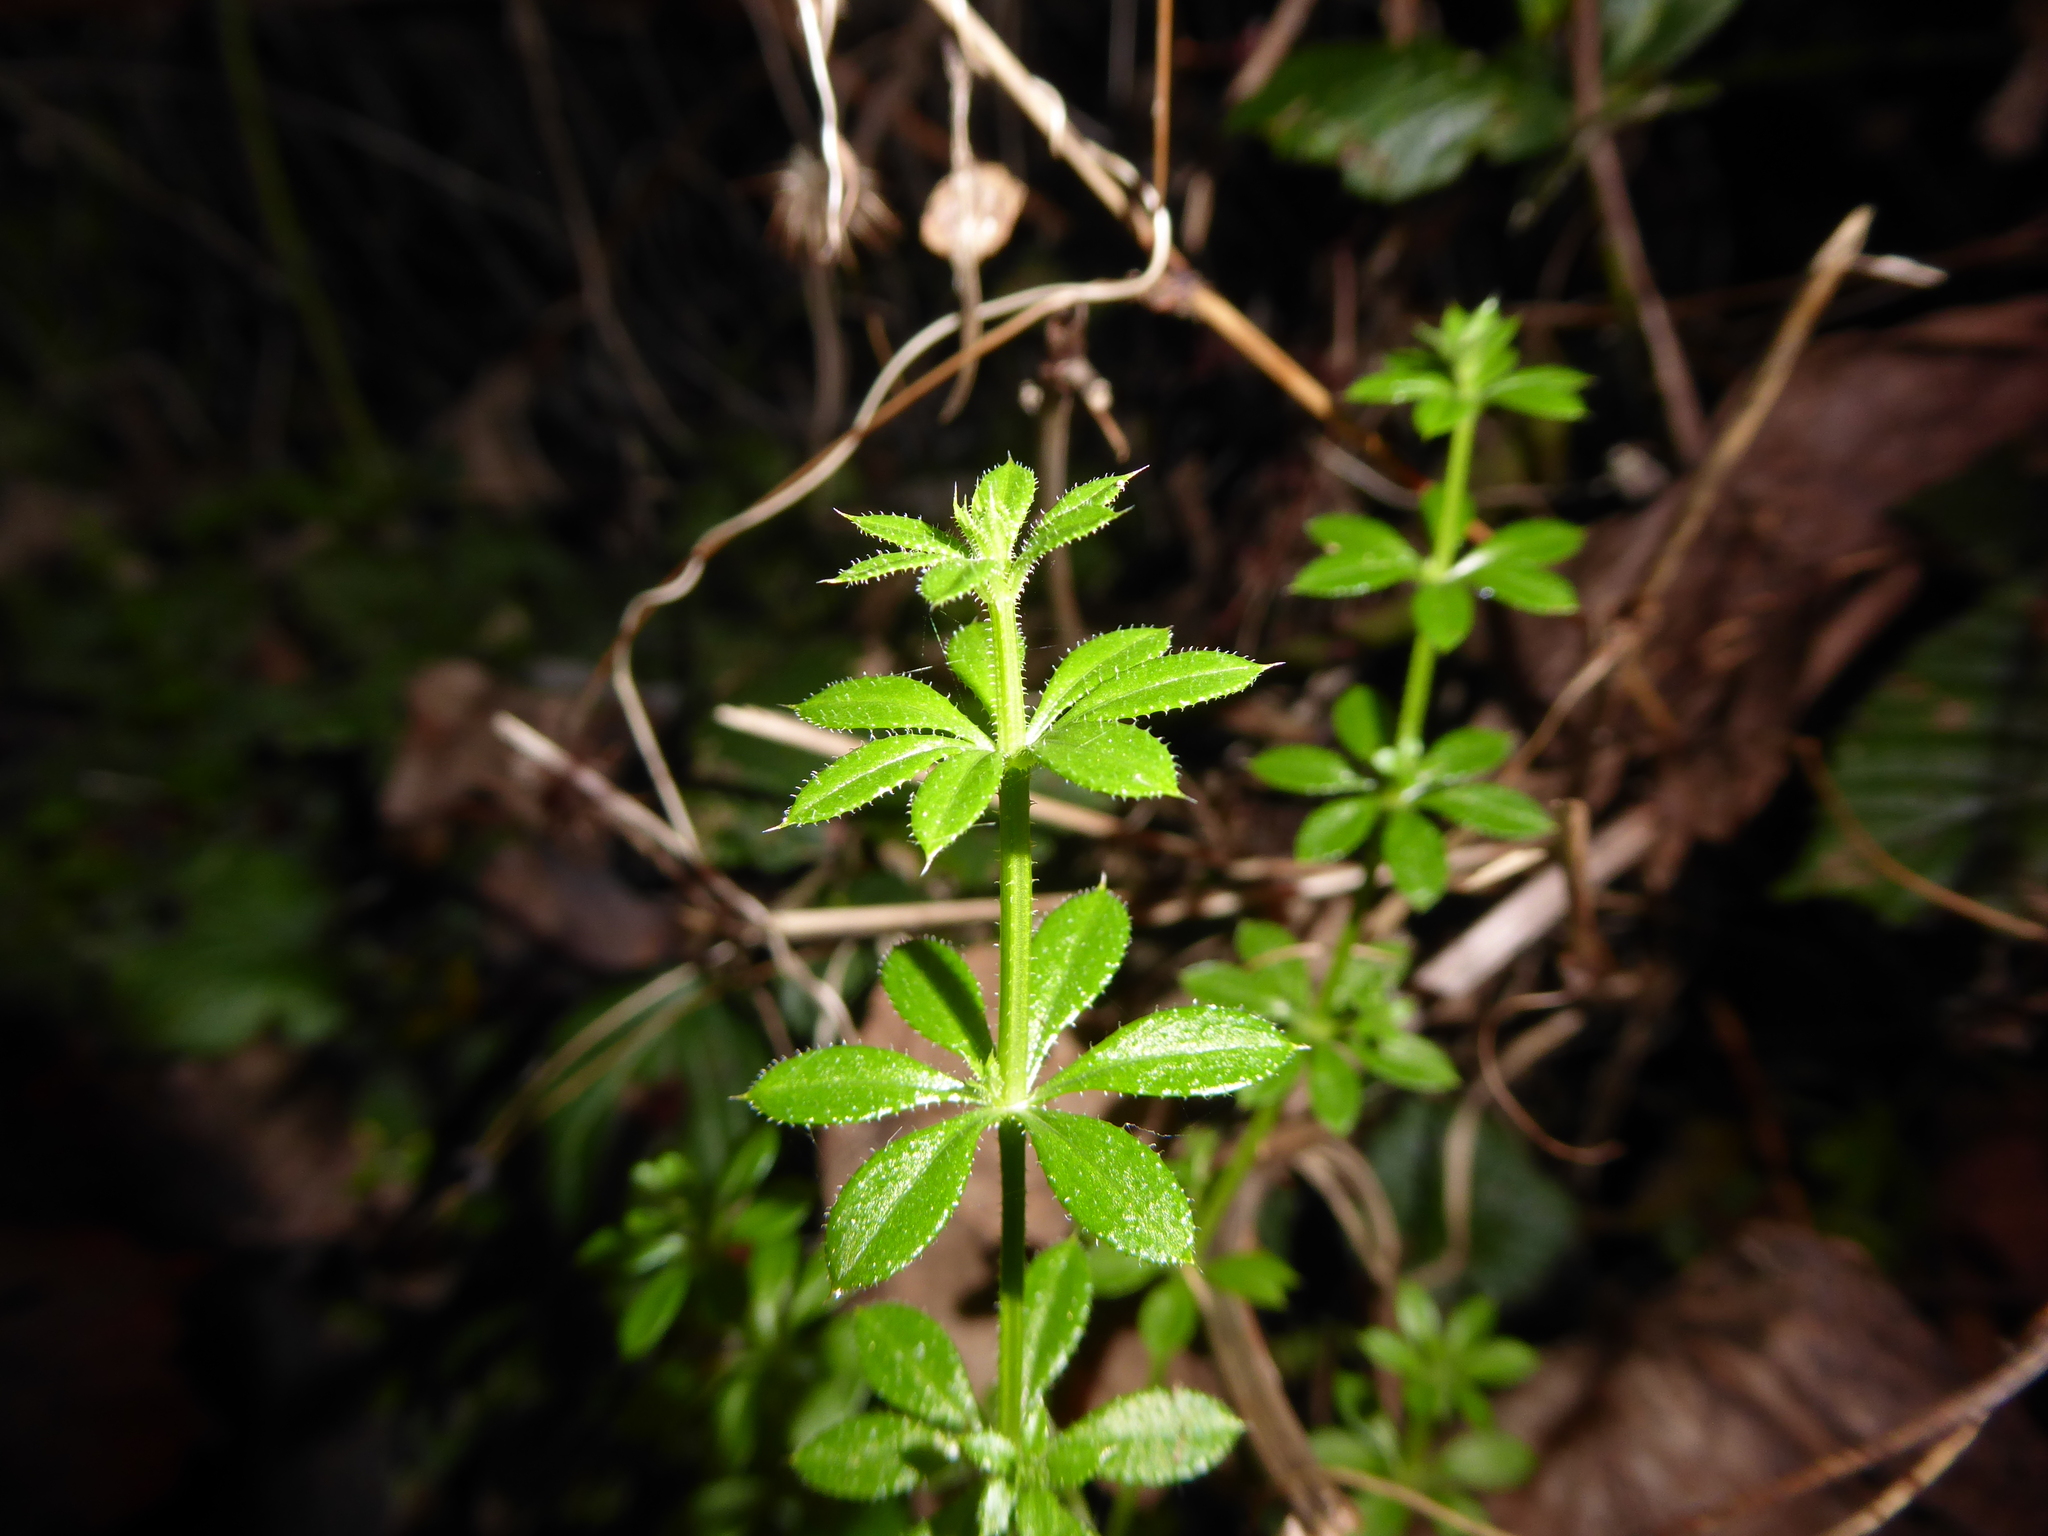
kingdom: Plantae
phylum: Tracheophyta
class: Magnoliopsida
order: Gentianales
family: Rubiaceae
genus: Galium
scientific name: Galium aparine
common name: Cleavers
